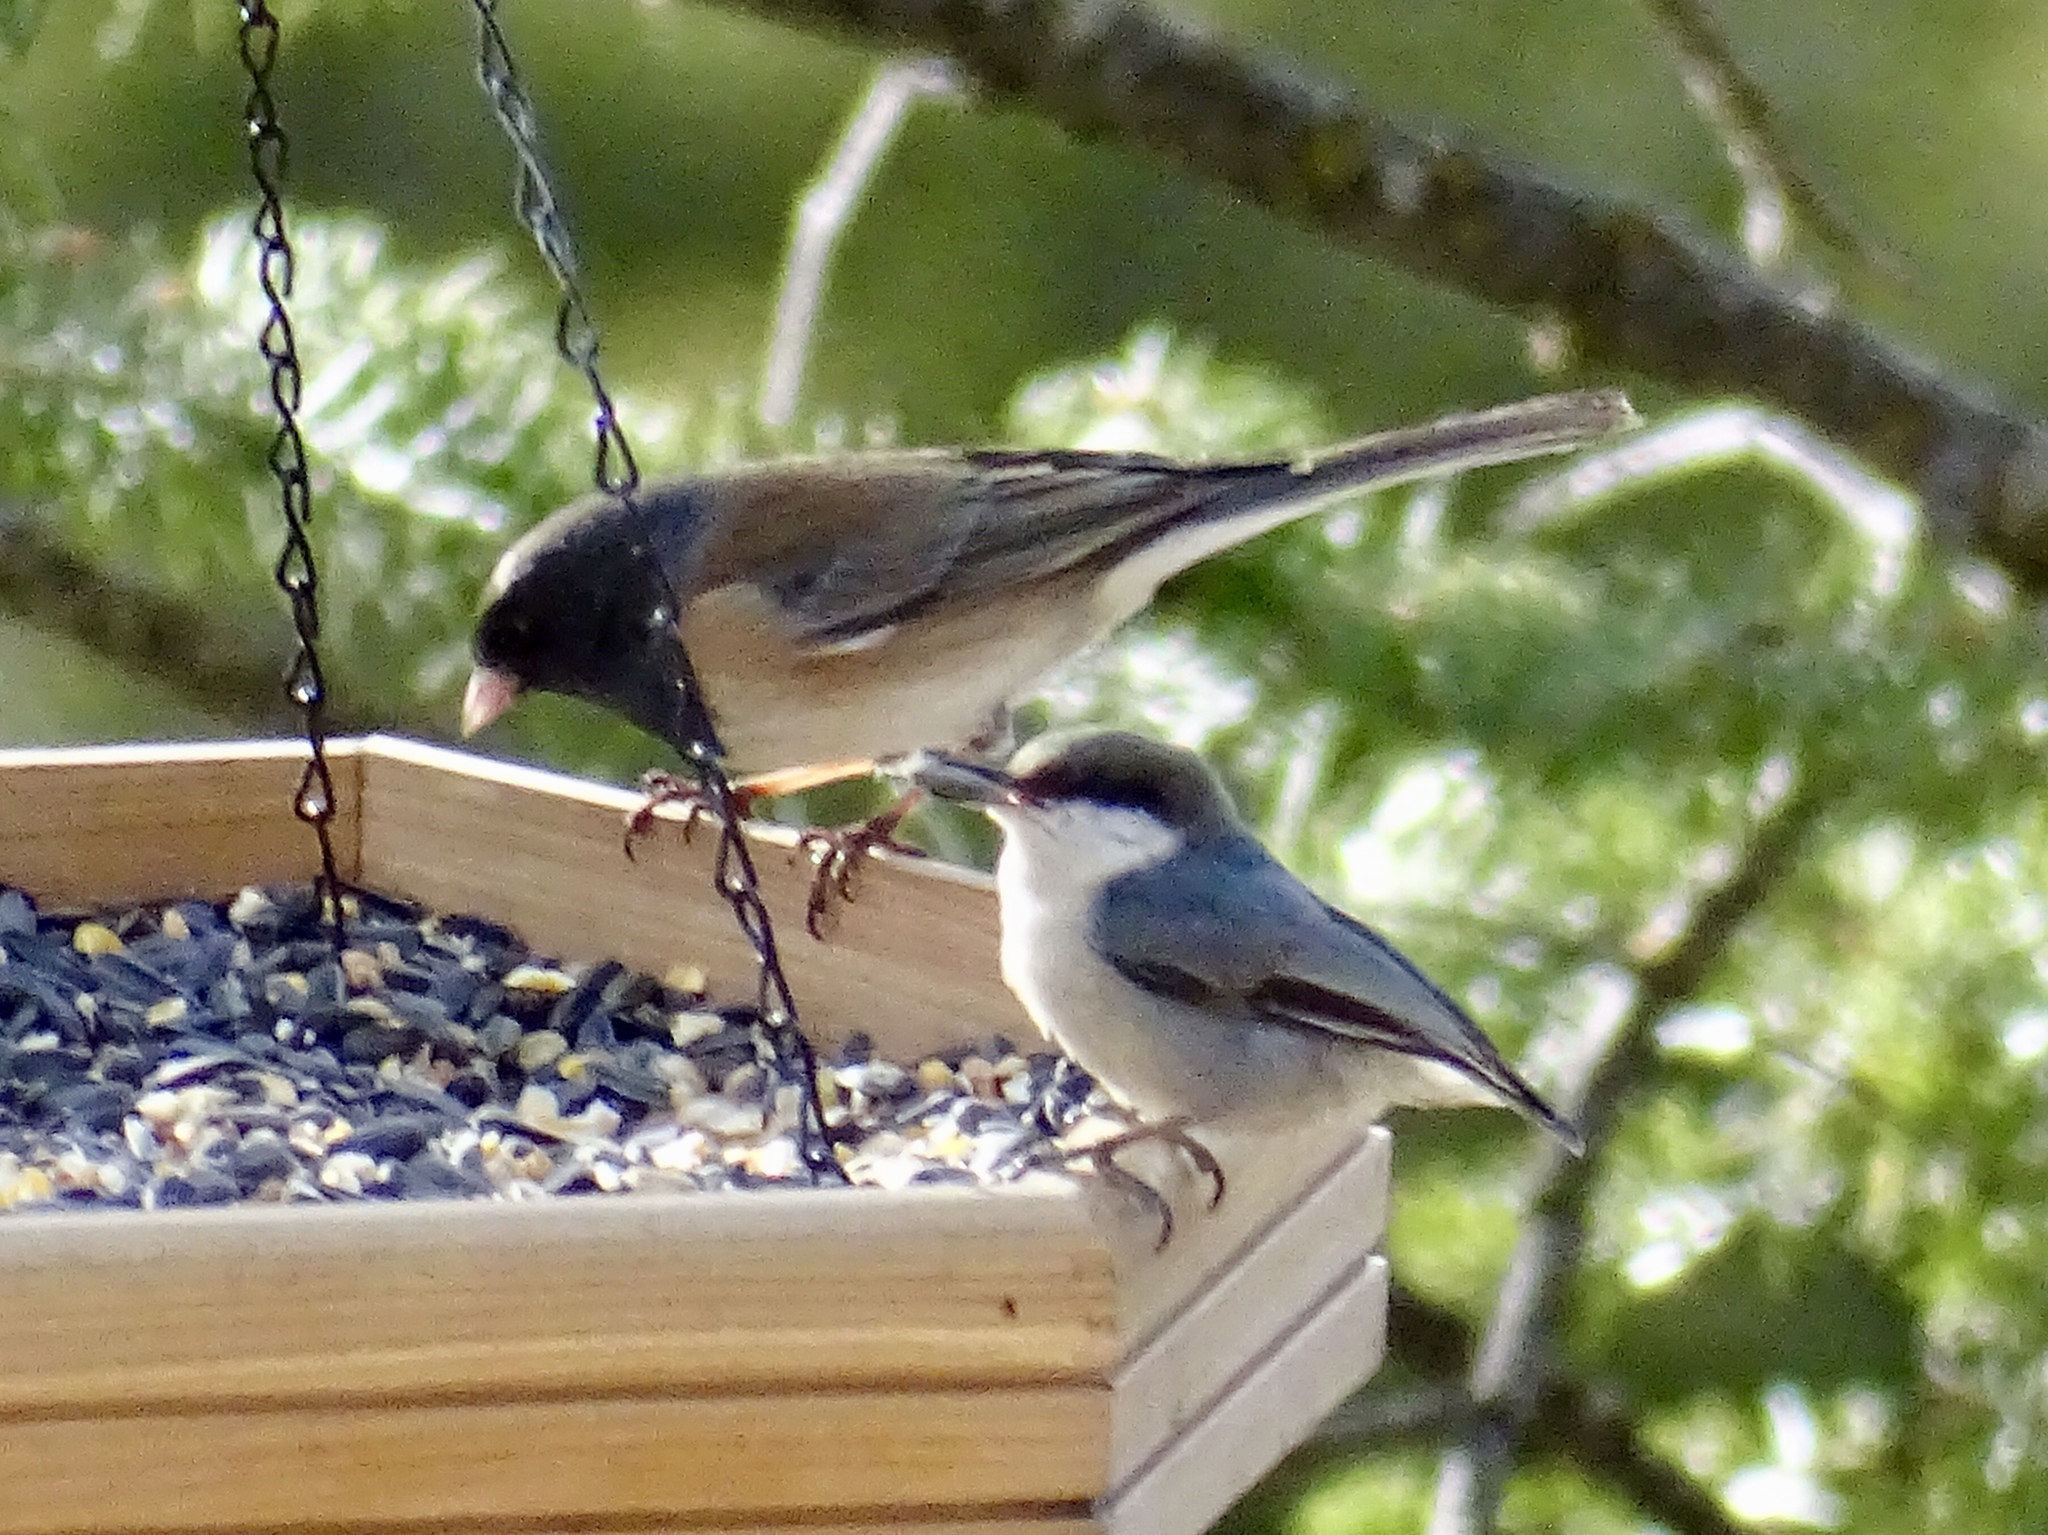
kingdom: Animalia
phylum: Chordata
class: Aves
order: Passeriformes
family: Sittidae
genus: Sitta
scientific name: Sitta pygmaea
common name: Pygmy nuthatch
